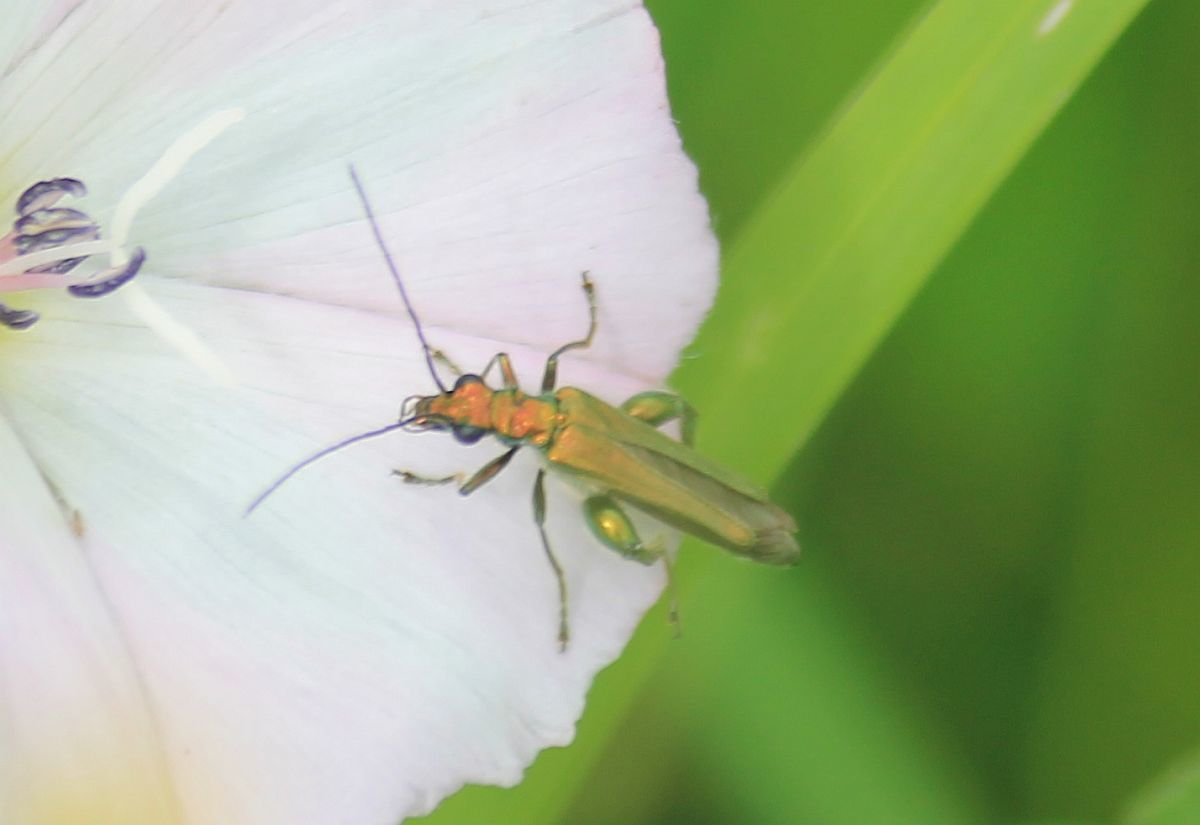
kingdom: Animalia
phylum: Arthropoda
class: Insecta
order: Coleoptera
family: Oedemeridae
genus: Oedemera
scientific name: Oedemera nobilis
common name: Swollen-thighed beetle
